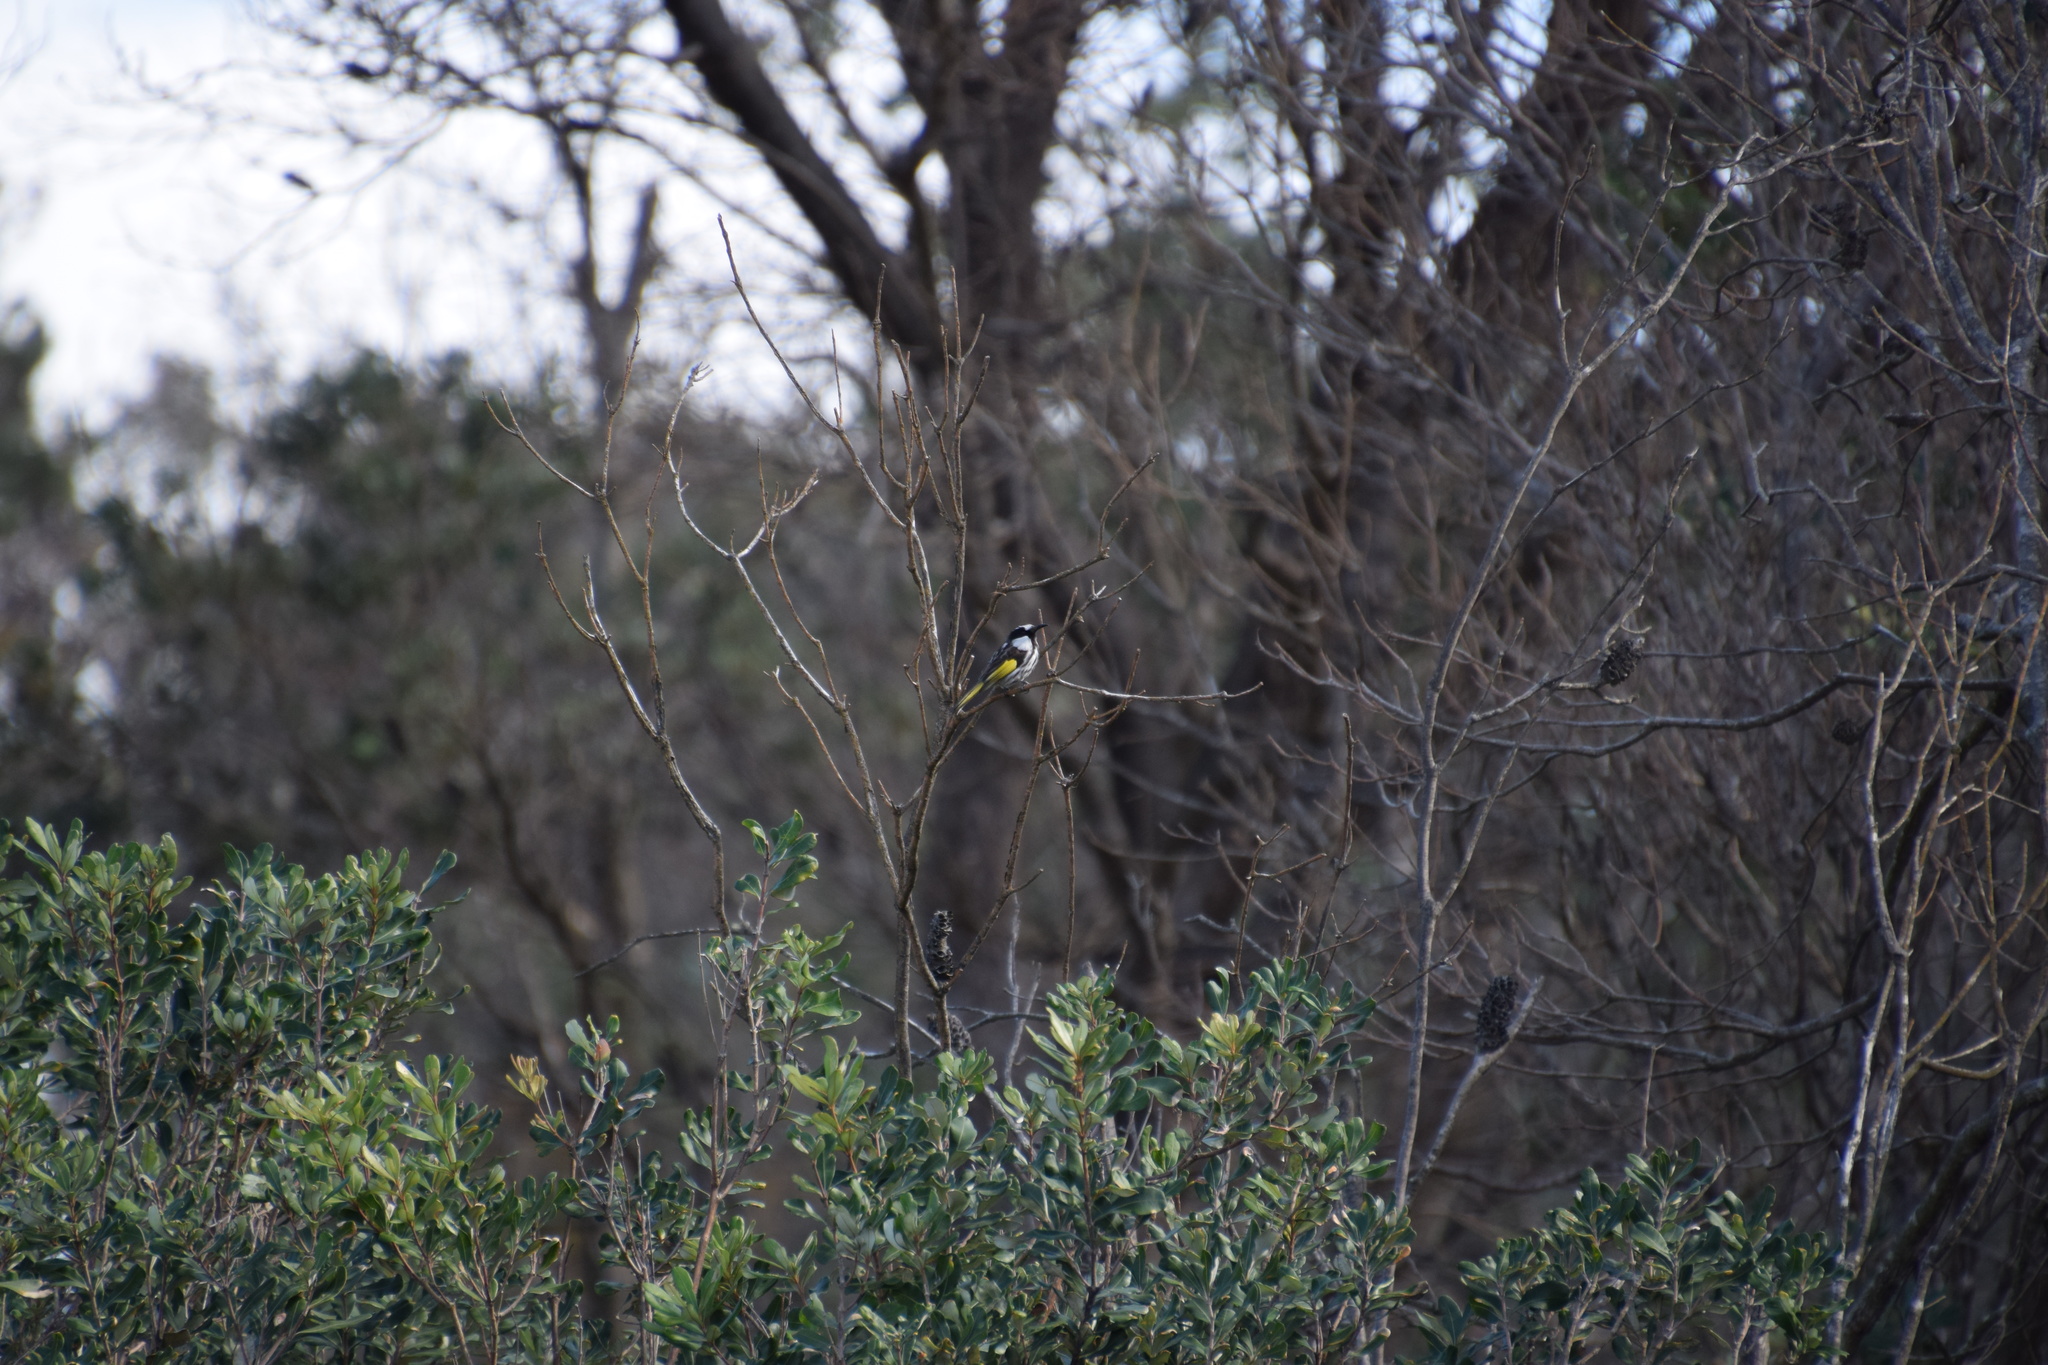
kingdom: Animalia
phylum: Chordata
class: Aves
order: Passeriformes
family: Meliphagidae
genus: Phylidonyris
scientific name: Phylidonyris niger
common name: White-cheeked honeyeater
